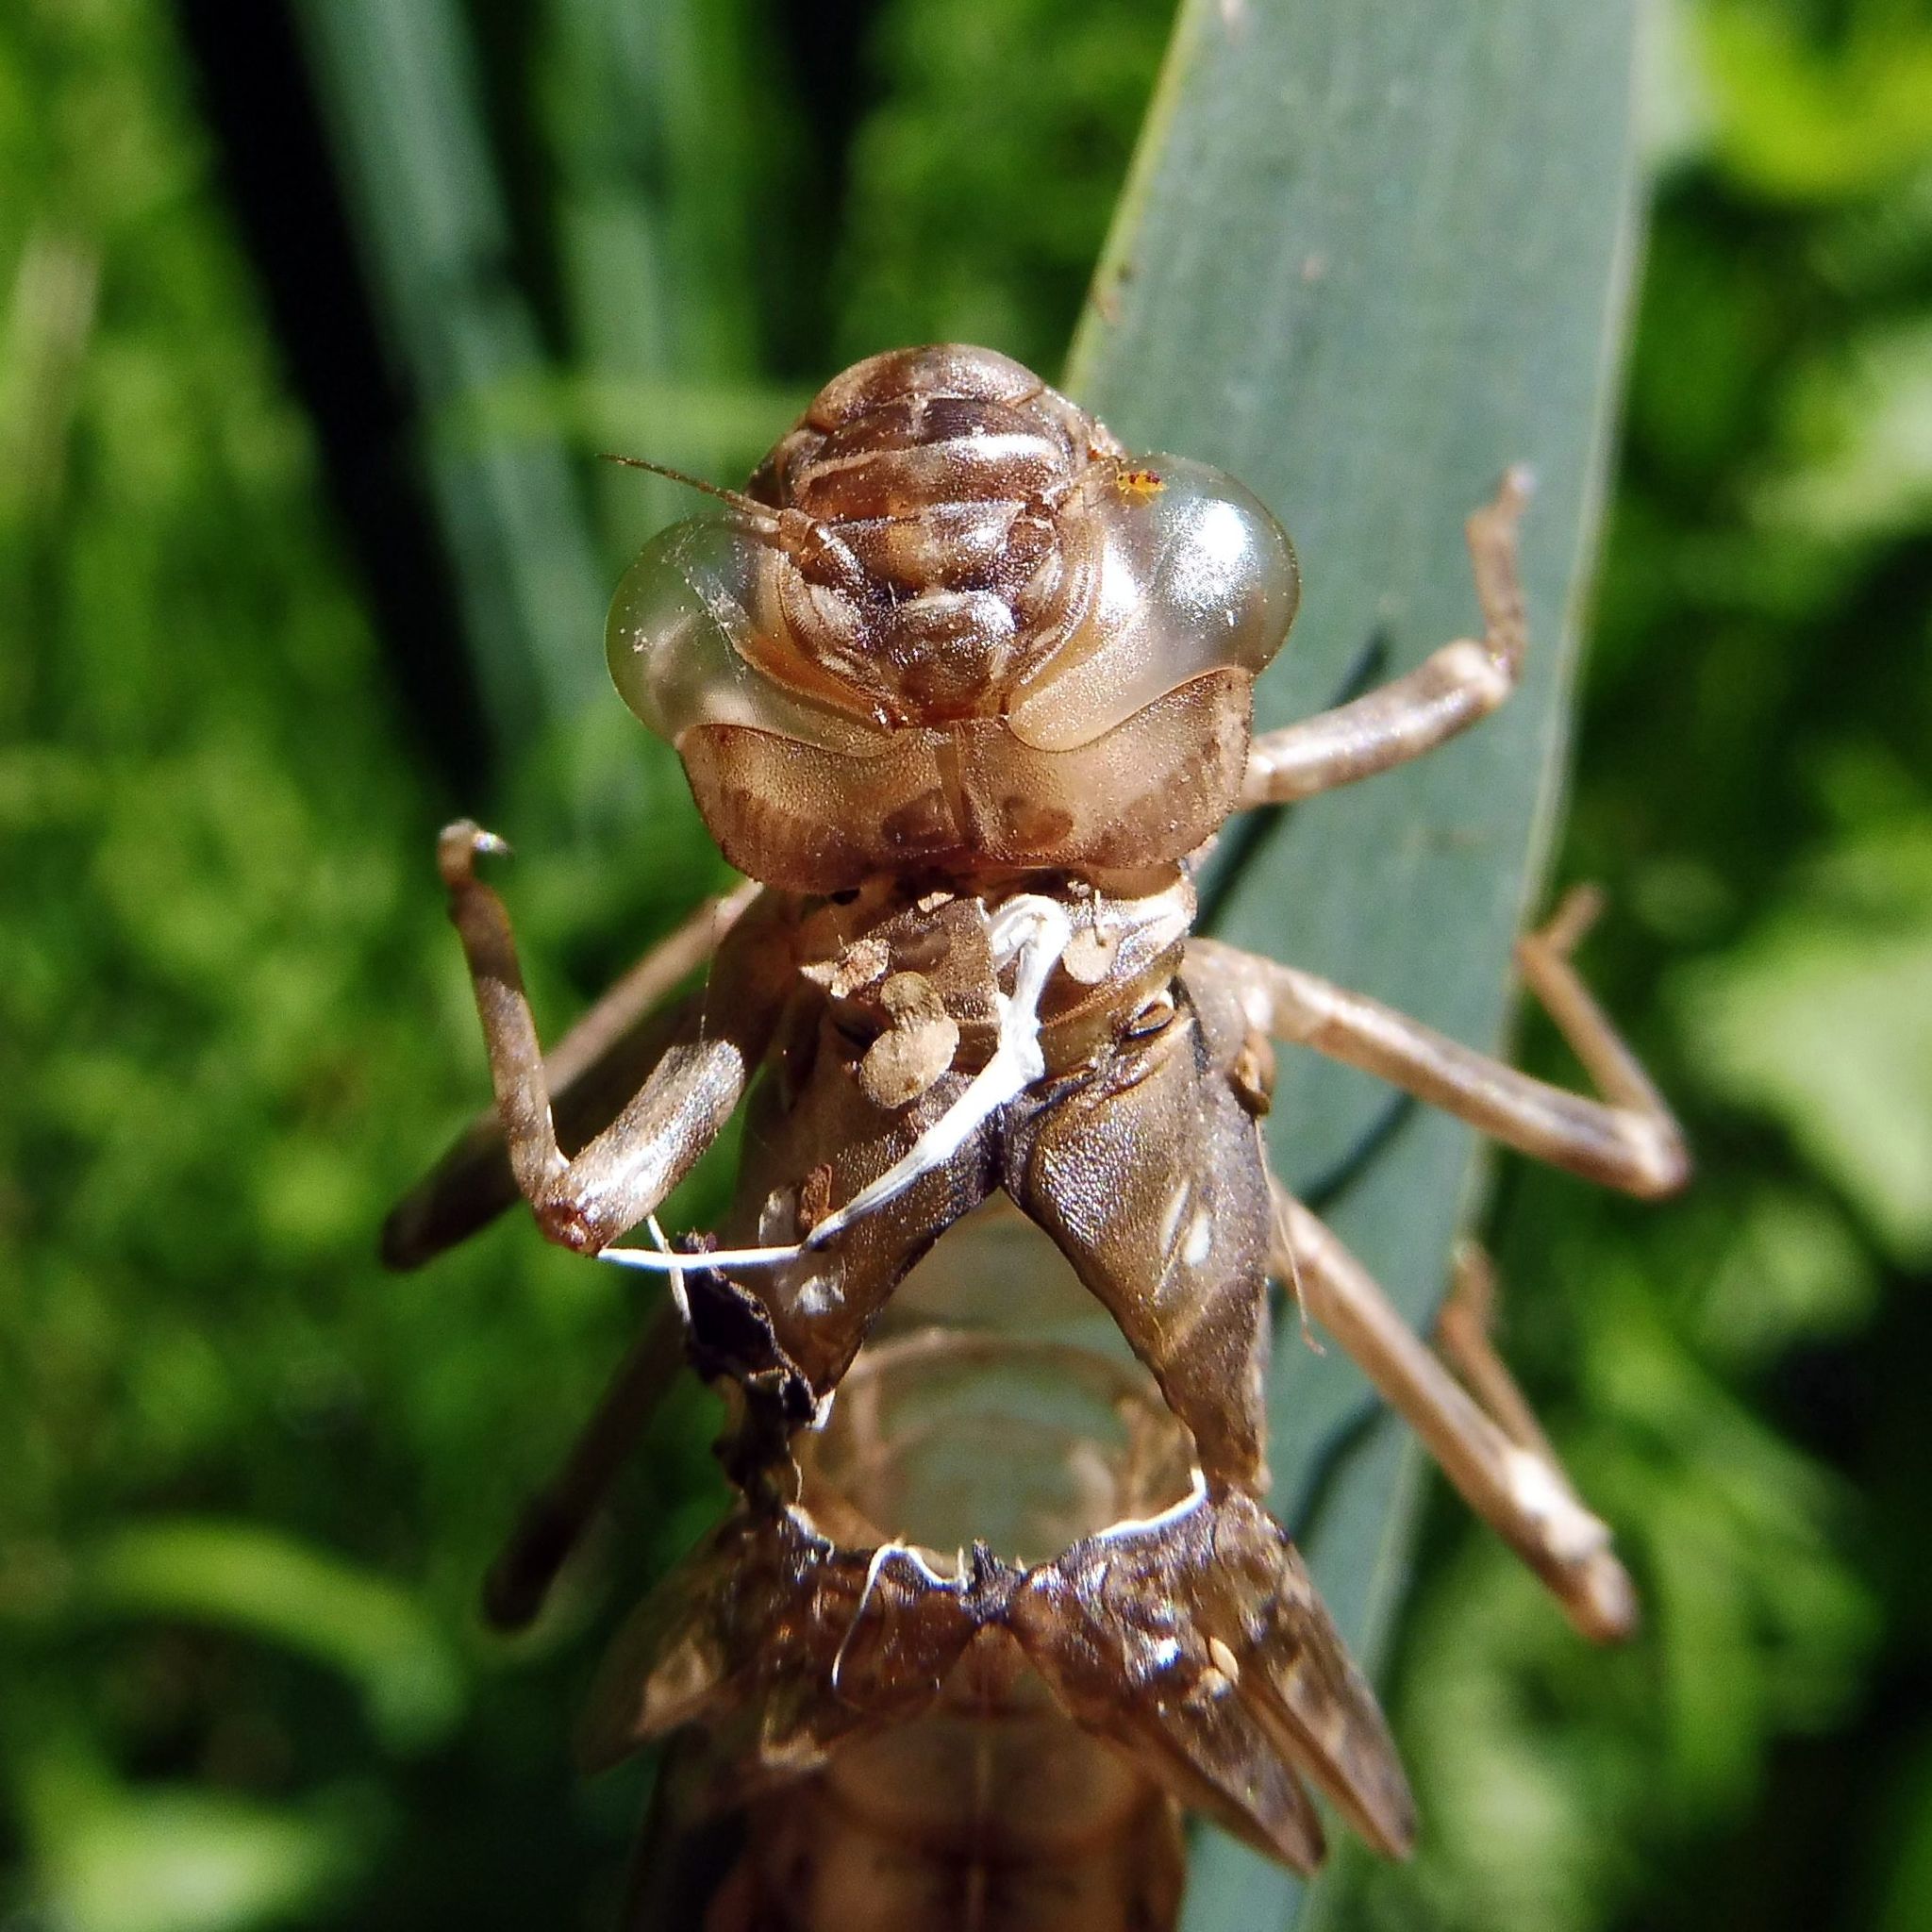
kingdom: Animalia
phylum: Arthropoda
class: Insecta
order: Odonata
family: Aeshnidae
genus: Aeshna
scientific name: Aeshna
